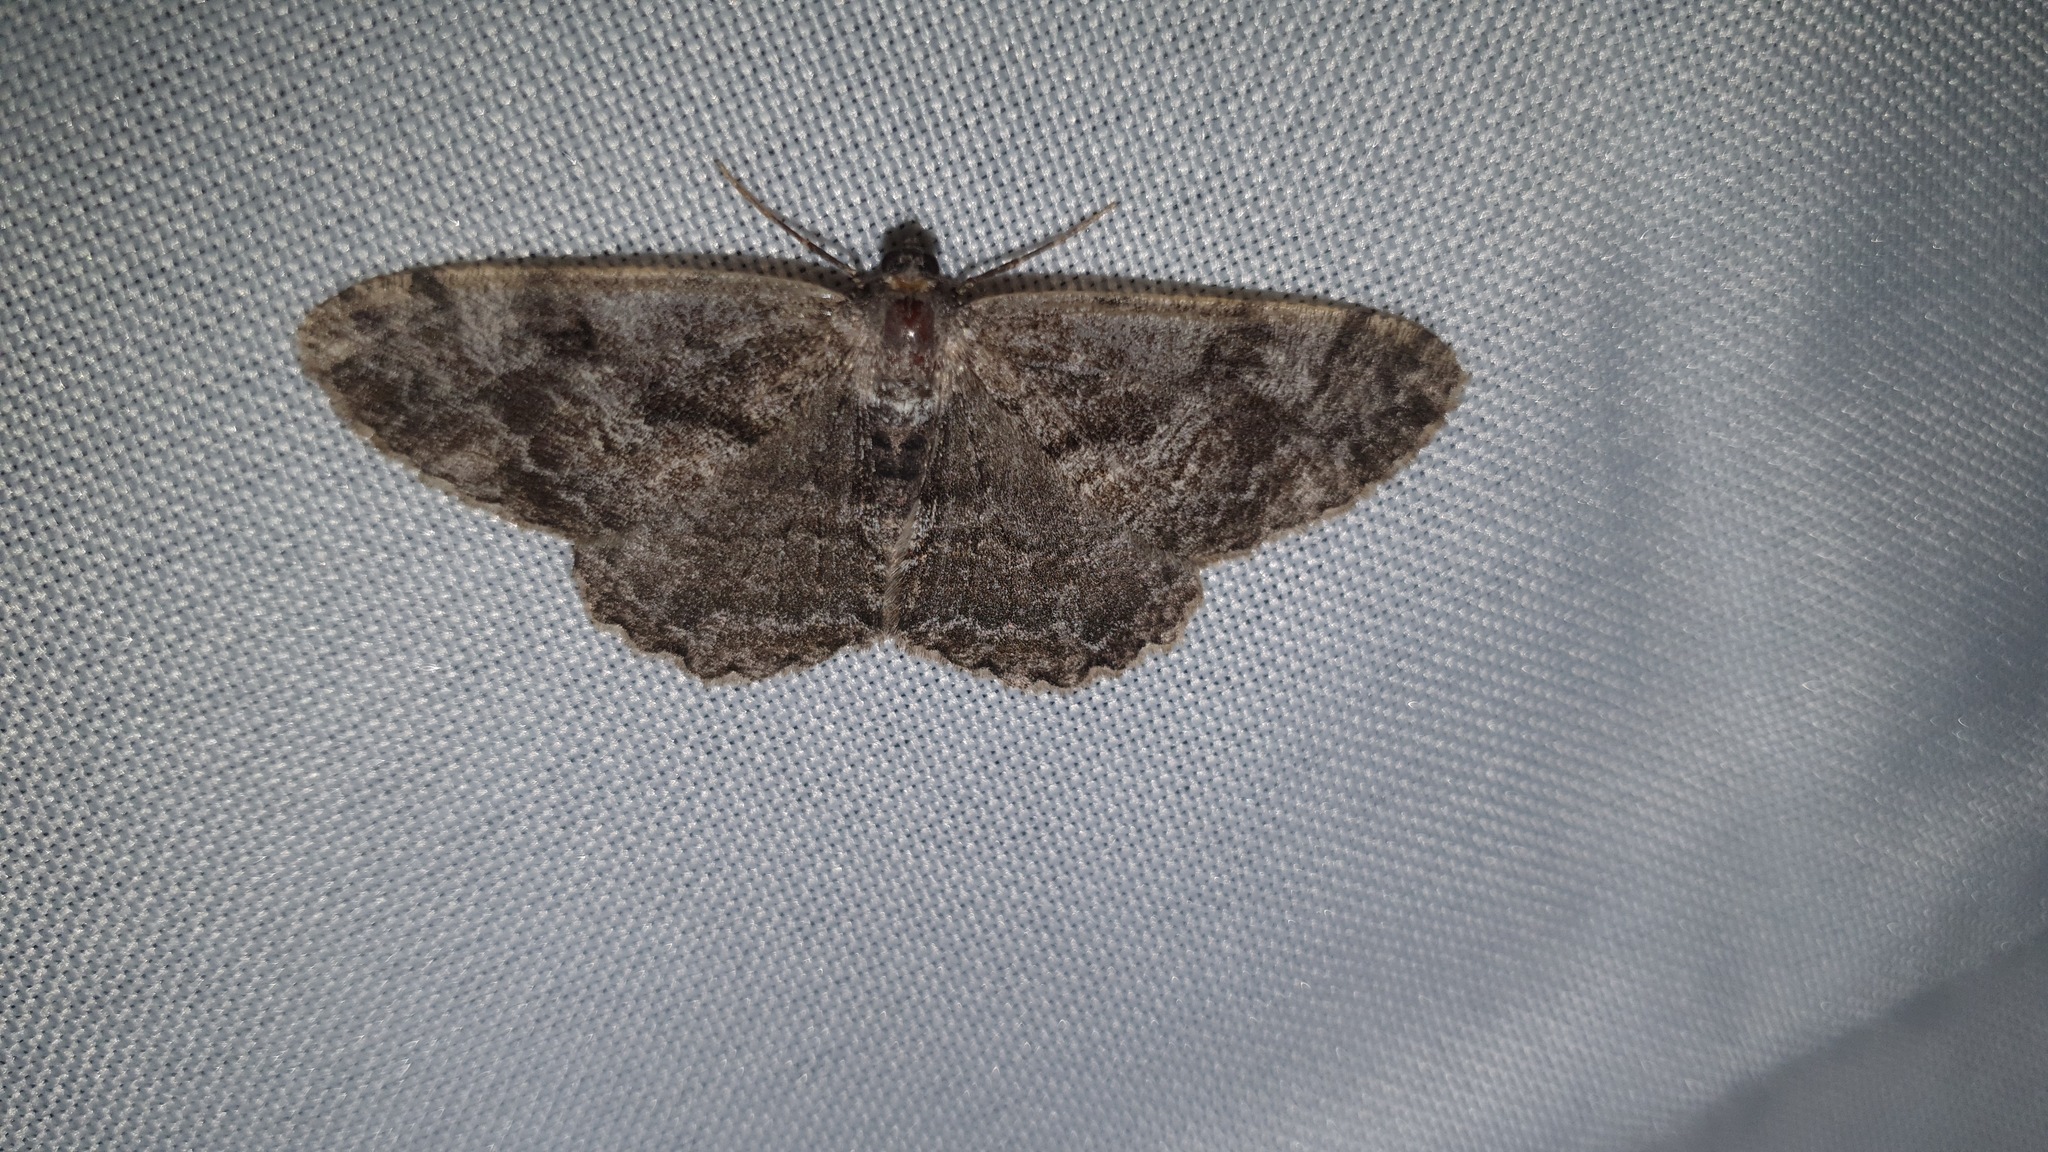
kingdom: Animalia
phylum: Arthropoda
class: Insecta
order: Lepidoptera
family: Geometridae
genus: Alcis
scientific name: Alcis repandata
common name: Mottled beauty
